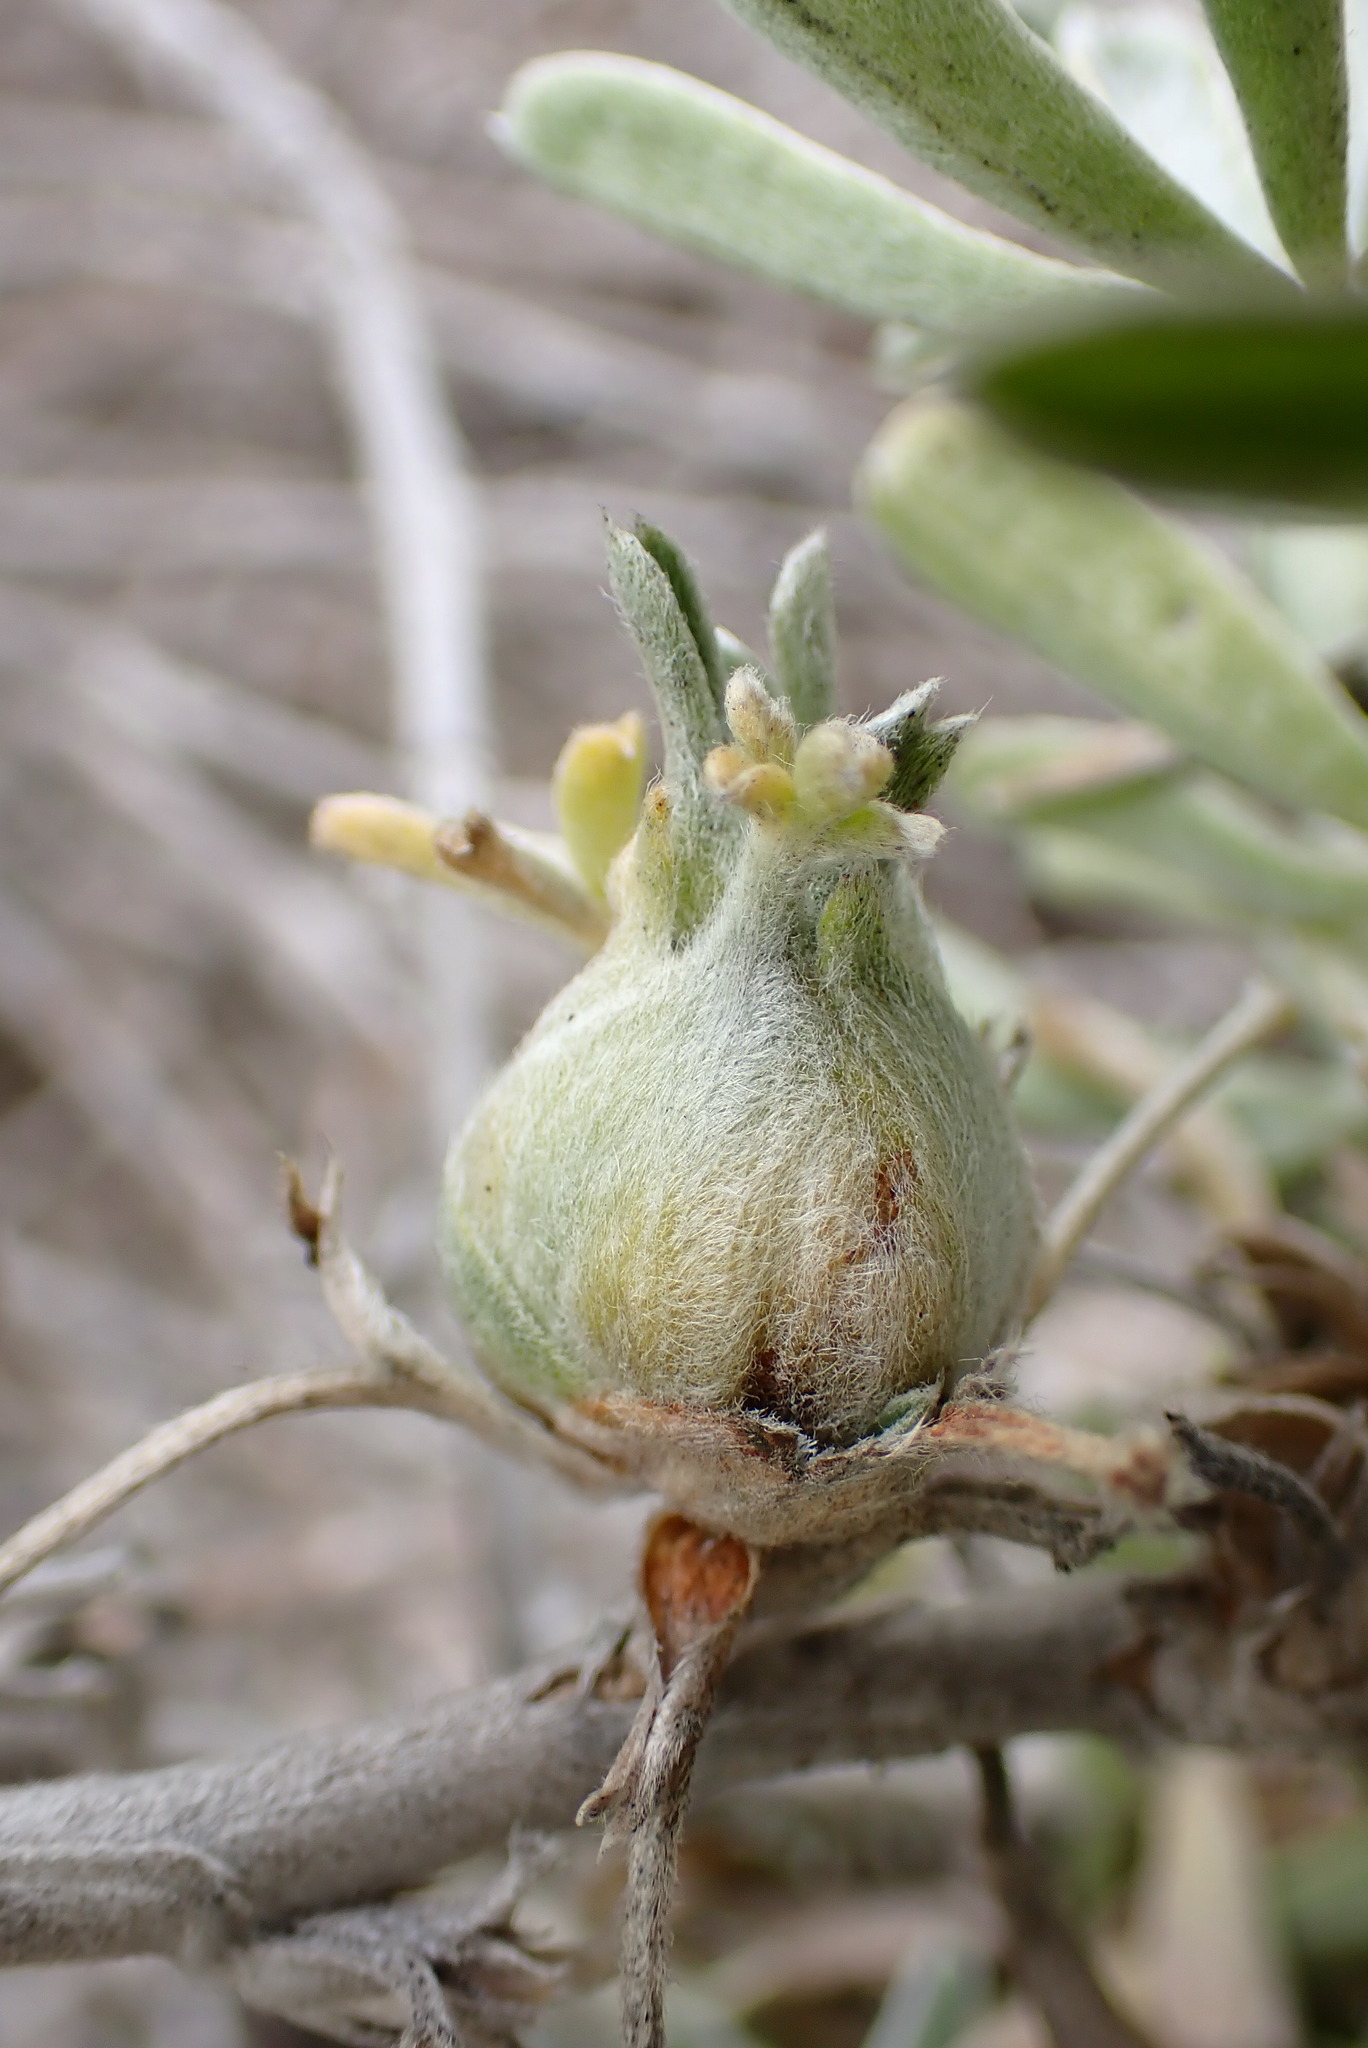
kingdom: Animalia
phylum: Arthropoda
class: Insecta
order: Diptera
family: Cecidomyiidae
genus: Dasineura
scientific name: Dasineura lupini
